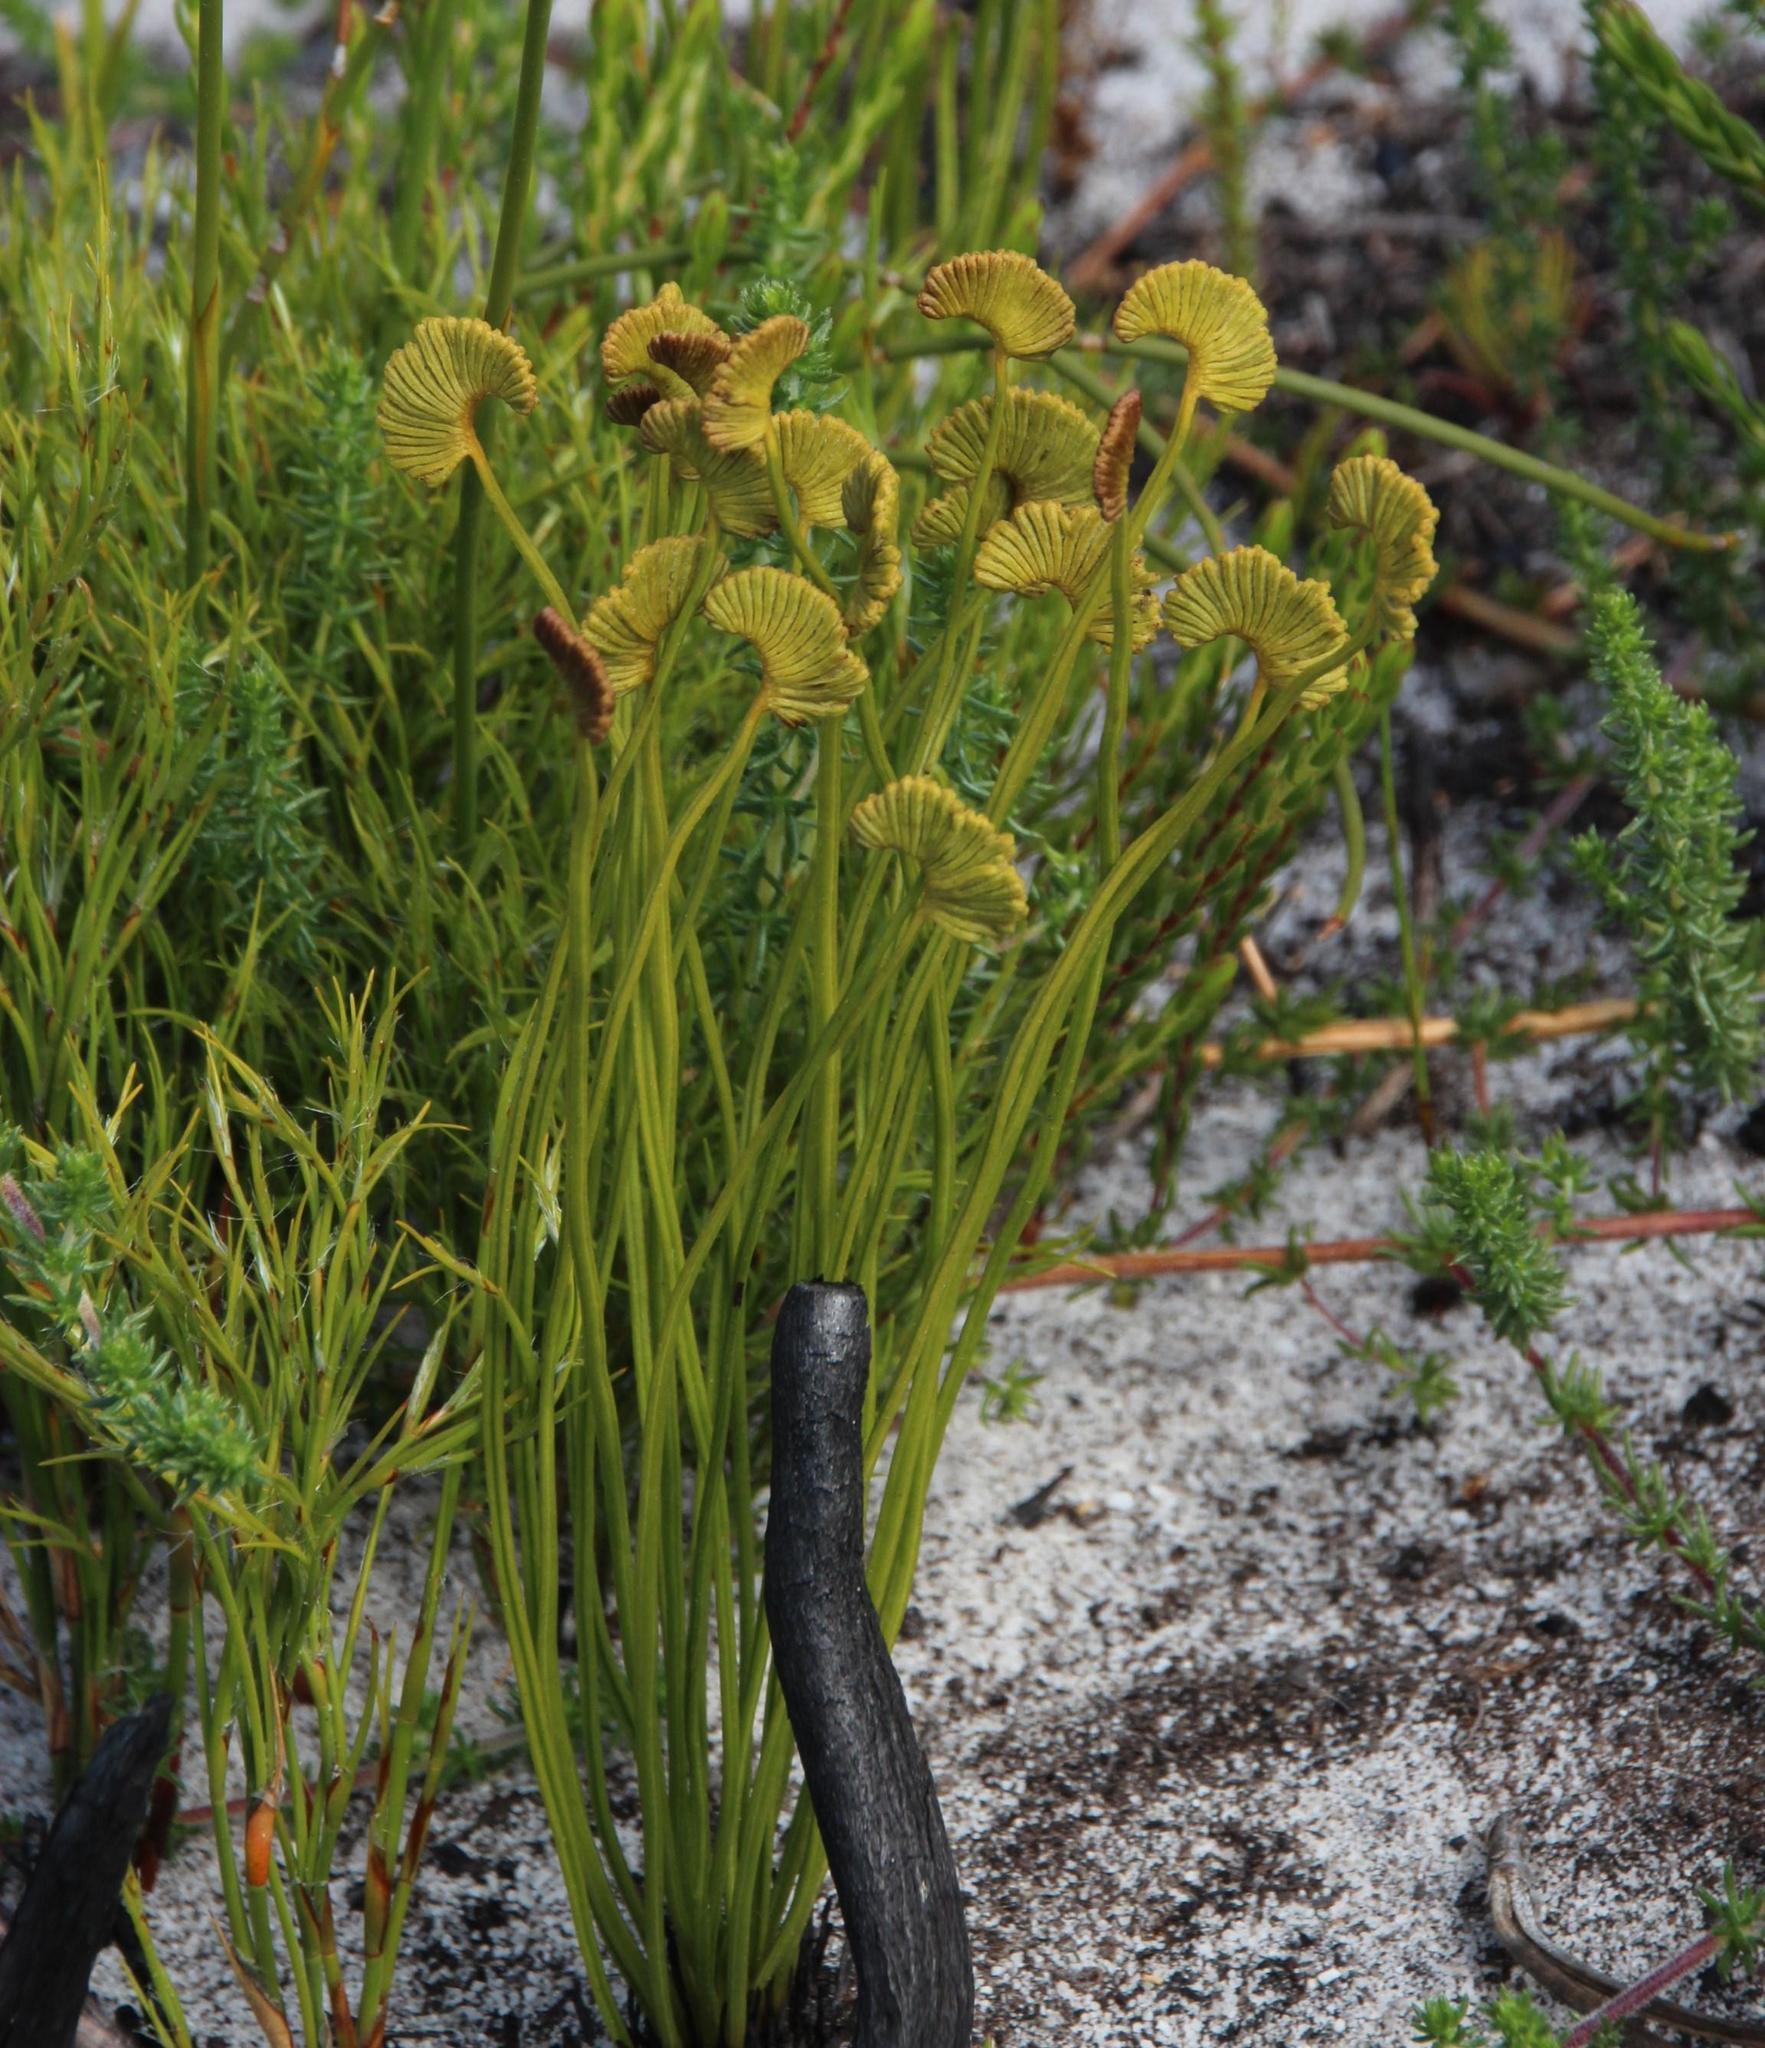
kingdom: Plantae
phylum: Tracheophyta
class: Polypodiopsida
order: Schizaeales
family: Schizaeaceae
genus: Schizaea
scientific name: Schizaea pectinata
